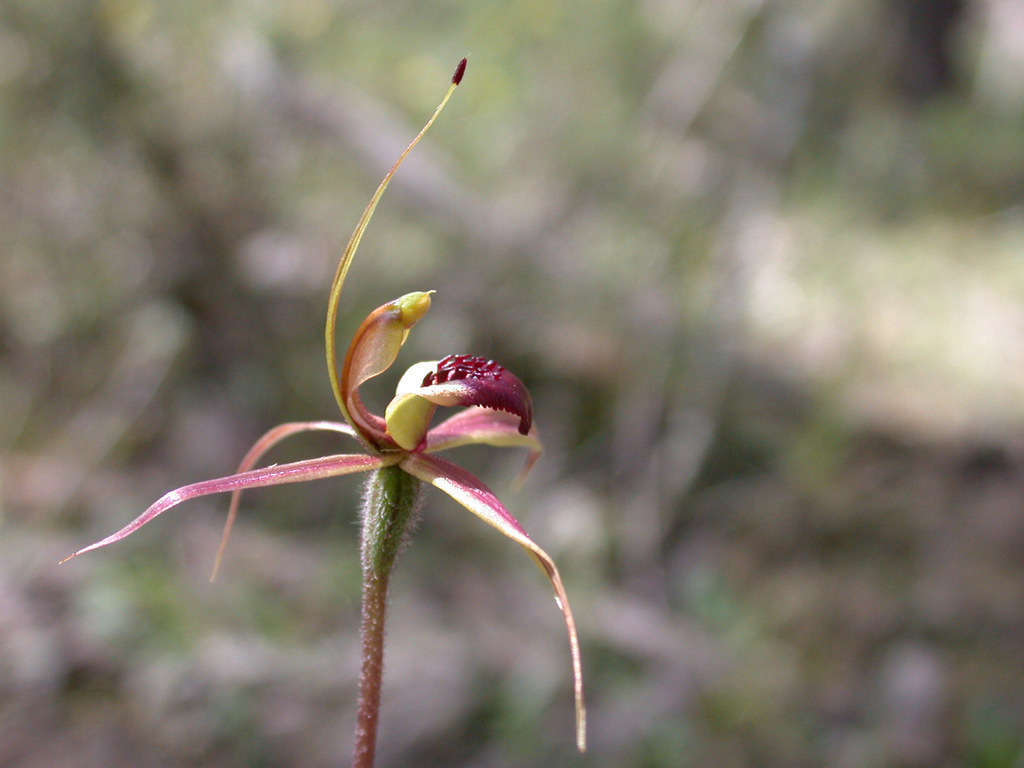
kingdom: Plantae
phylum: Tracheophyta
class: Liliopsida
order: Asparagales
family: Orchidaceae
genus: Caladenia
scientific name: Caladenia clavigera
